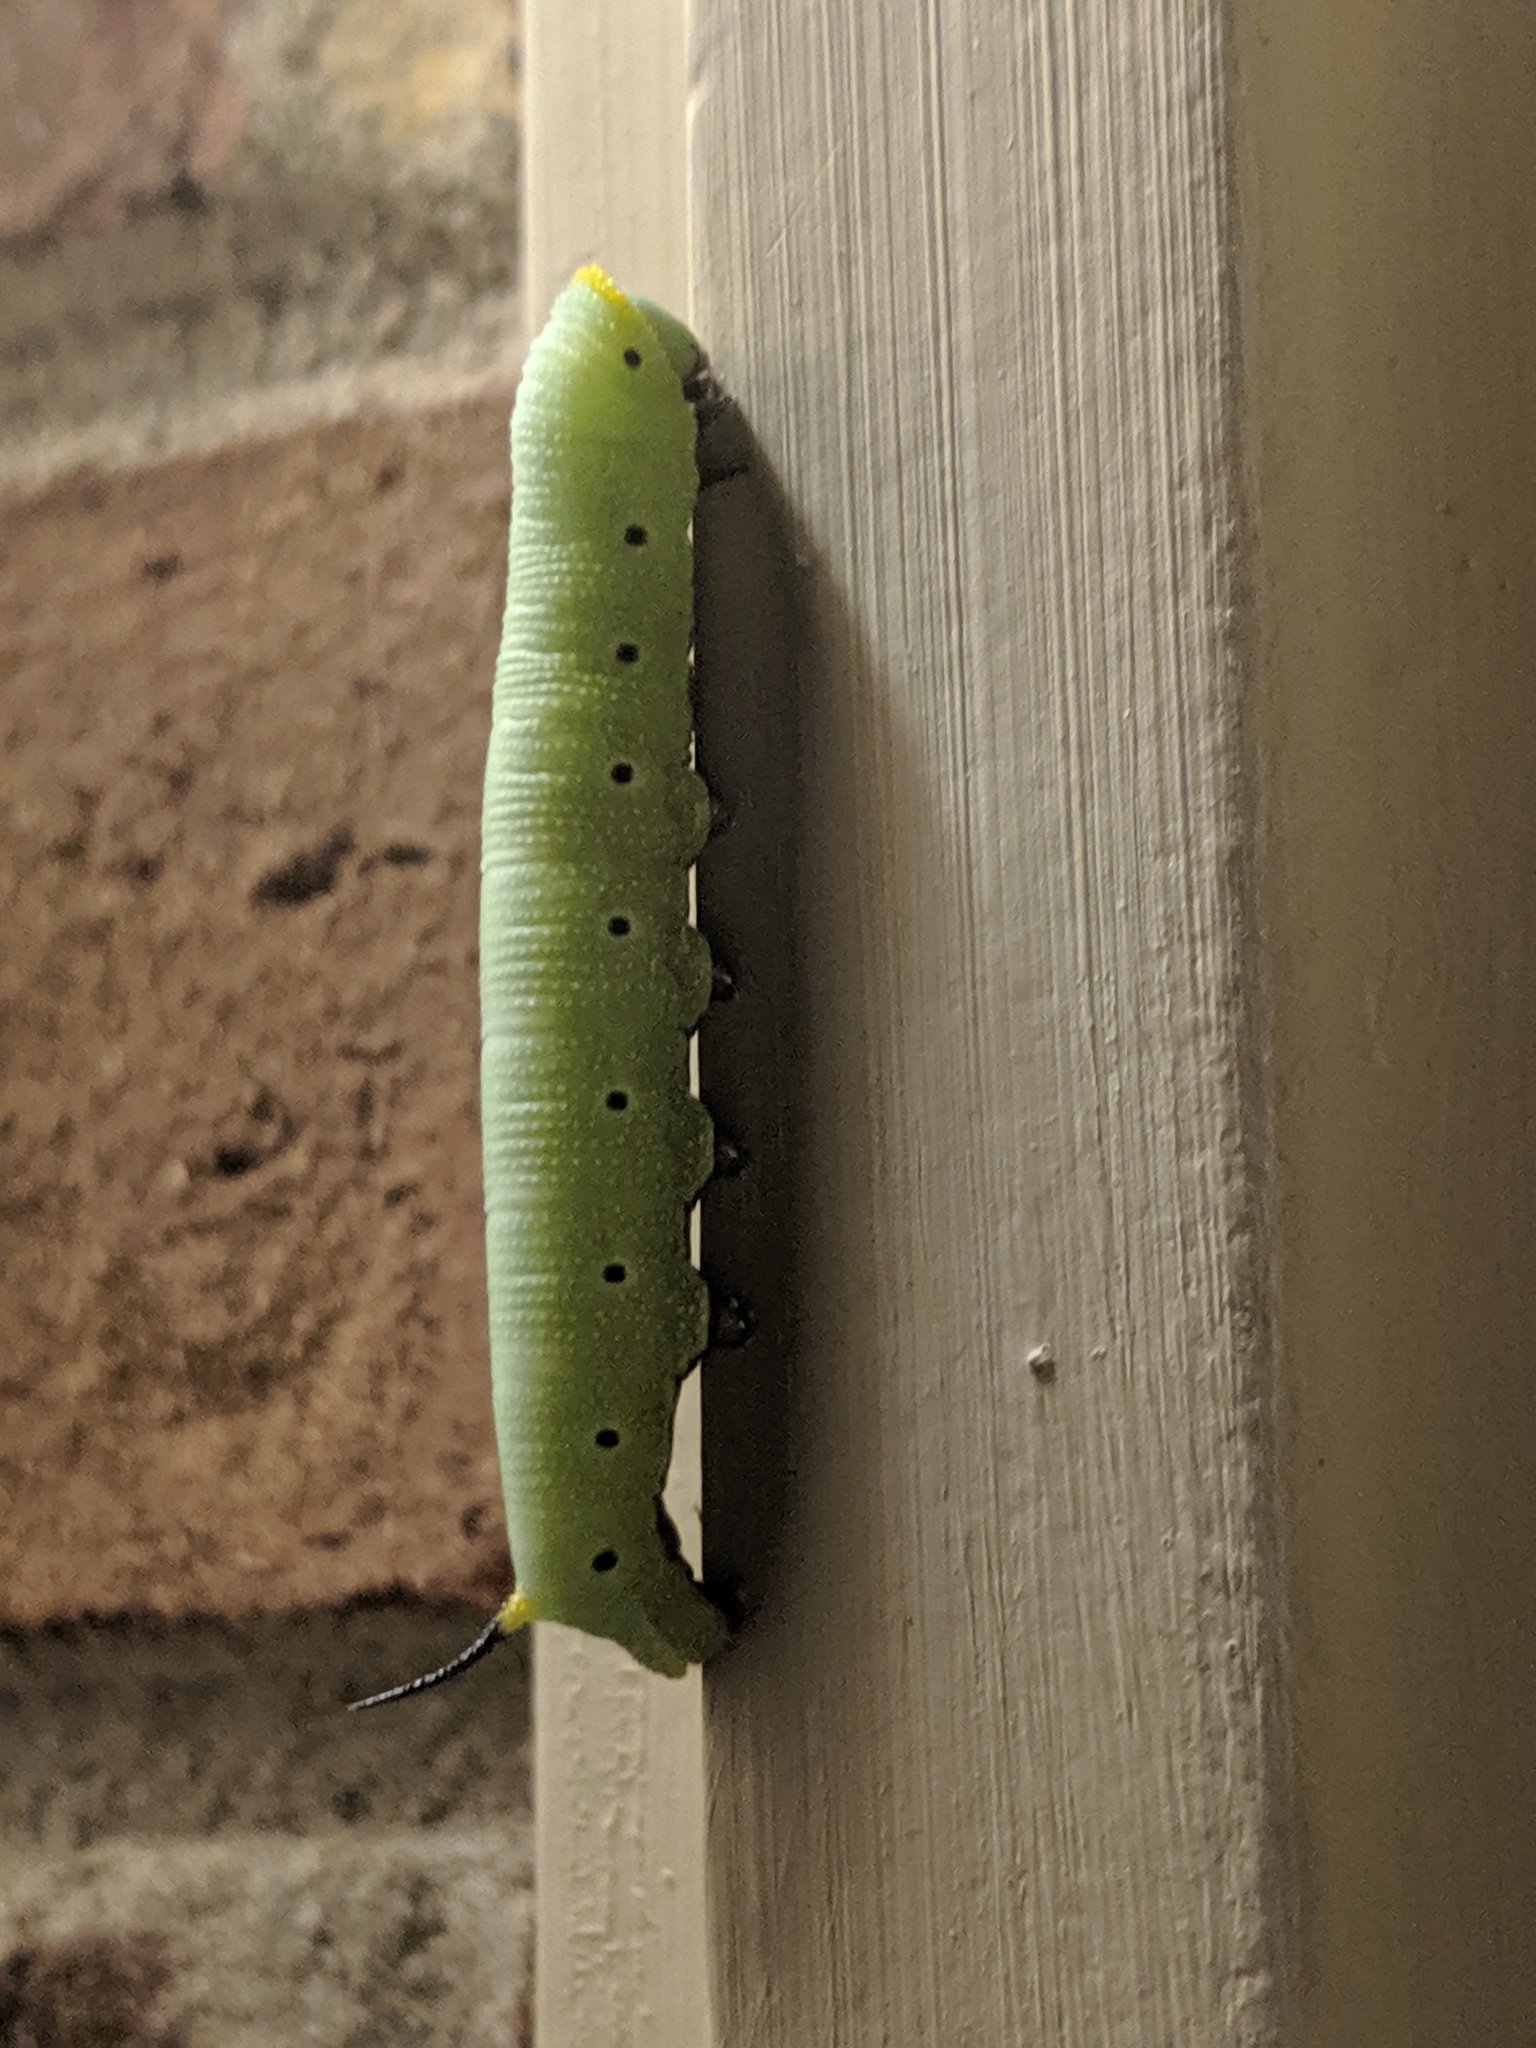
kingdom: Animalia
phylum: Arthropoda
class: Insecta
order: Lepidoptera
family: Sphingidae
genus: Hemaris
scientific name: Hemaris diffinis
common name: Bumblebee moth
